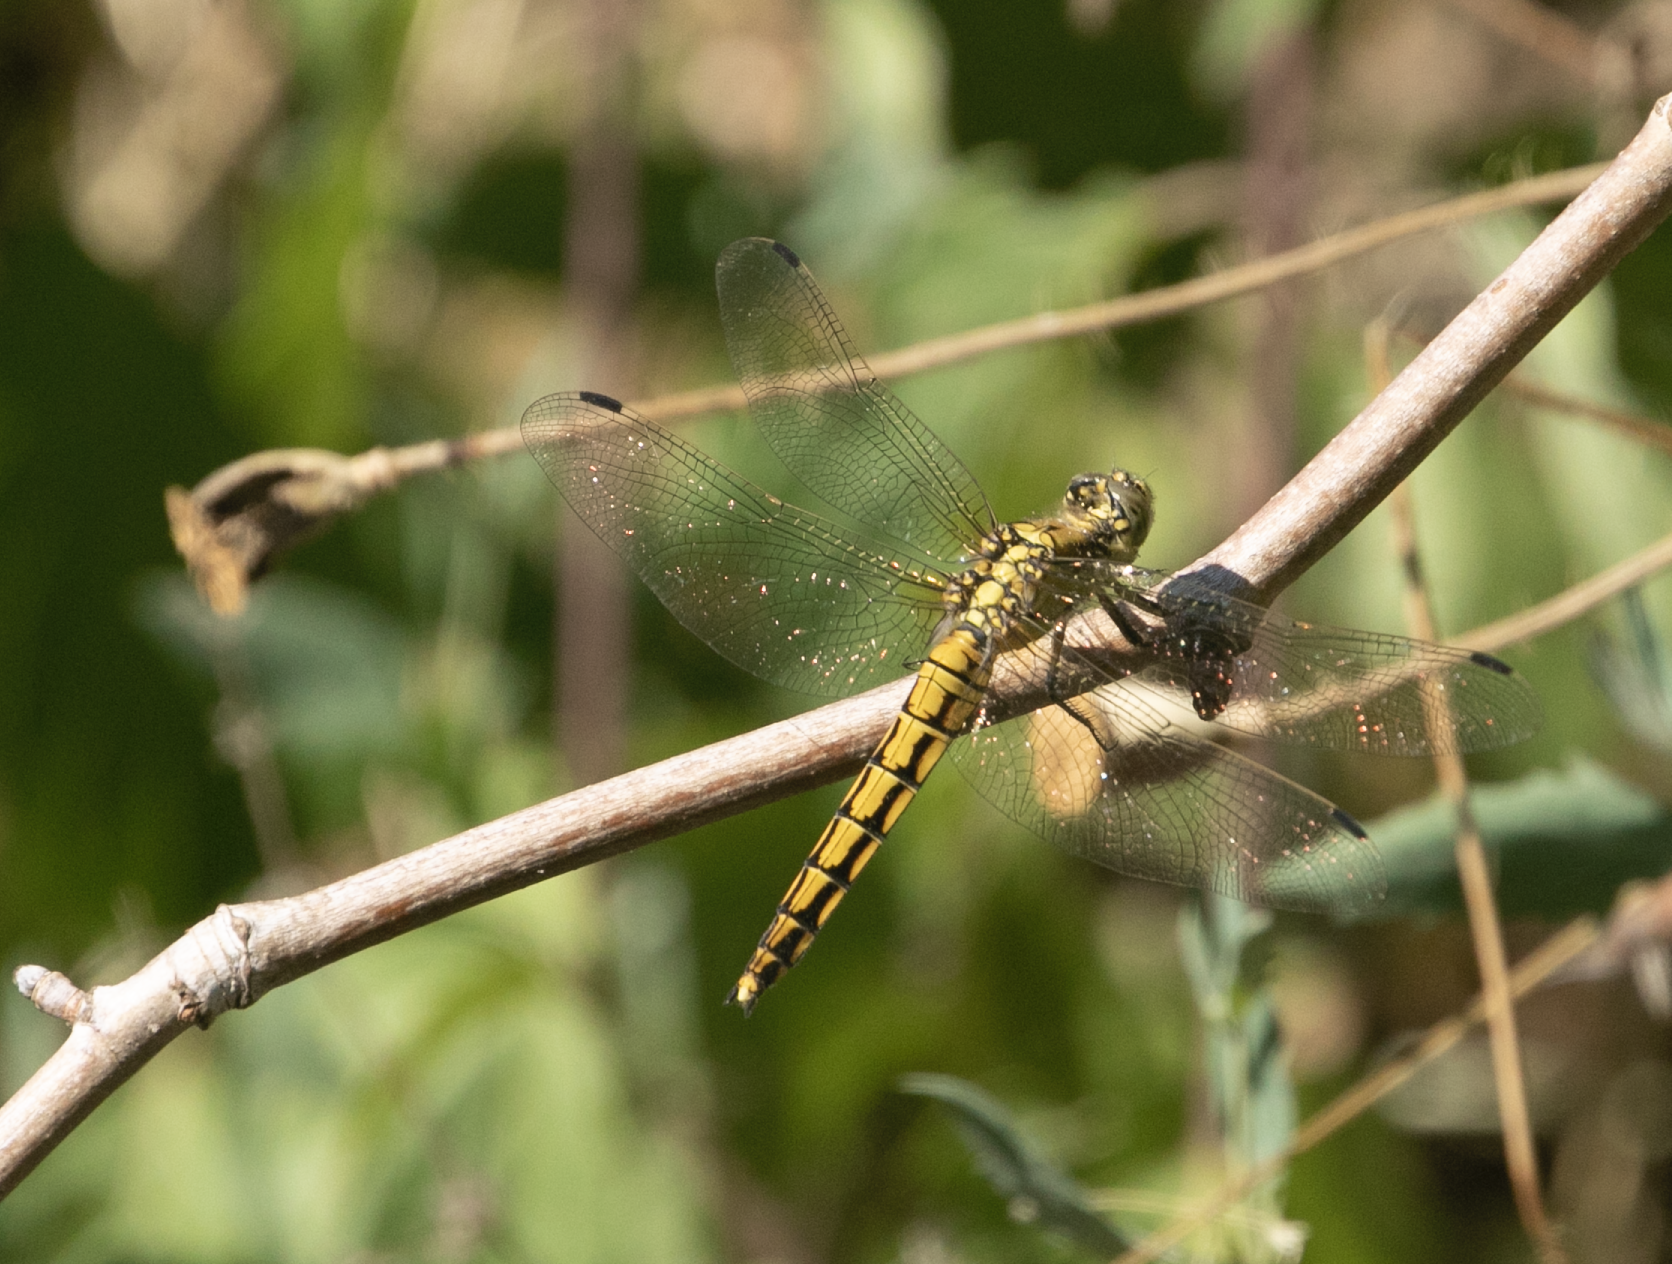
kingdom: Animalia
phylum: Arthropoda
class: Insecta
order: Odonata
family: Libellulidae
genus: Orthetrum
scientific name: Orthetrum cancellatum
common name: Black-tailed skimmer
